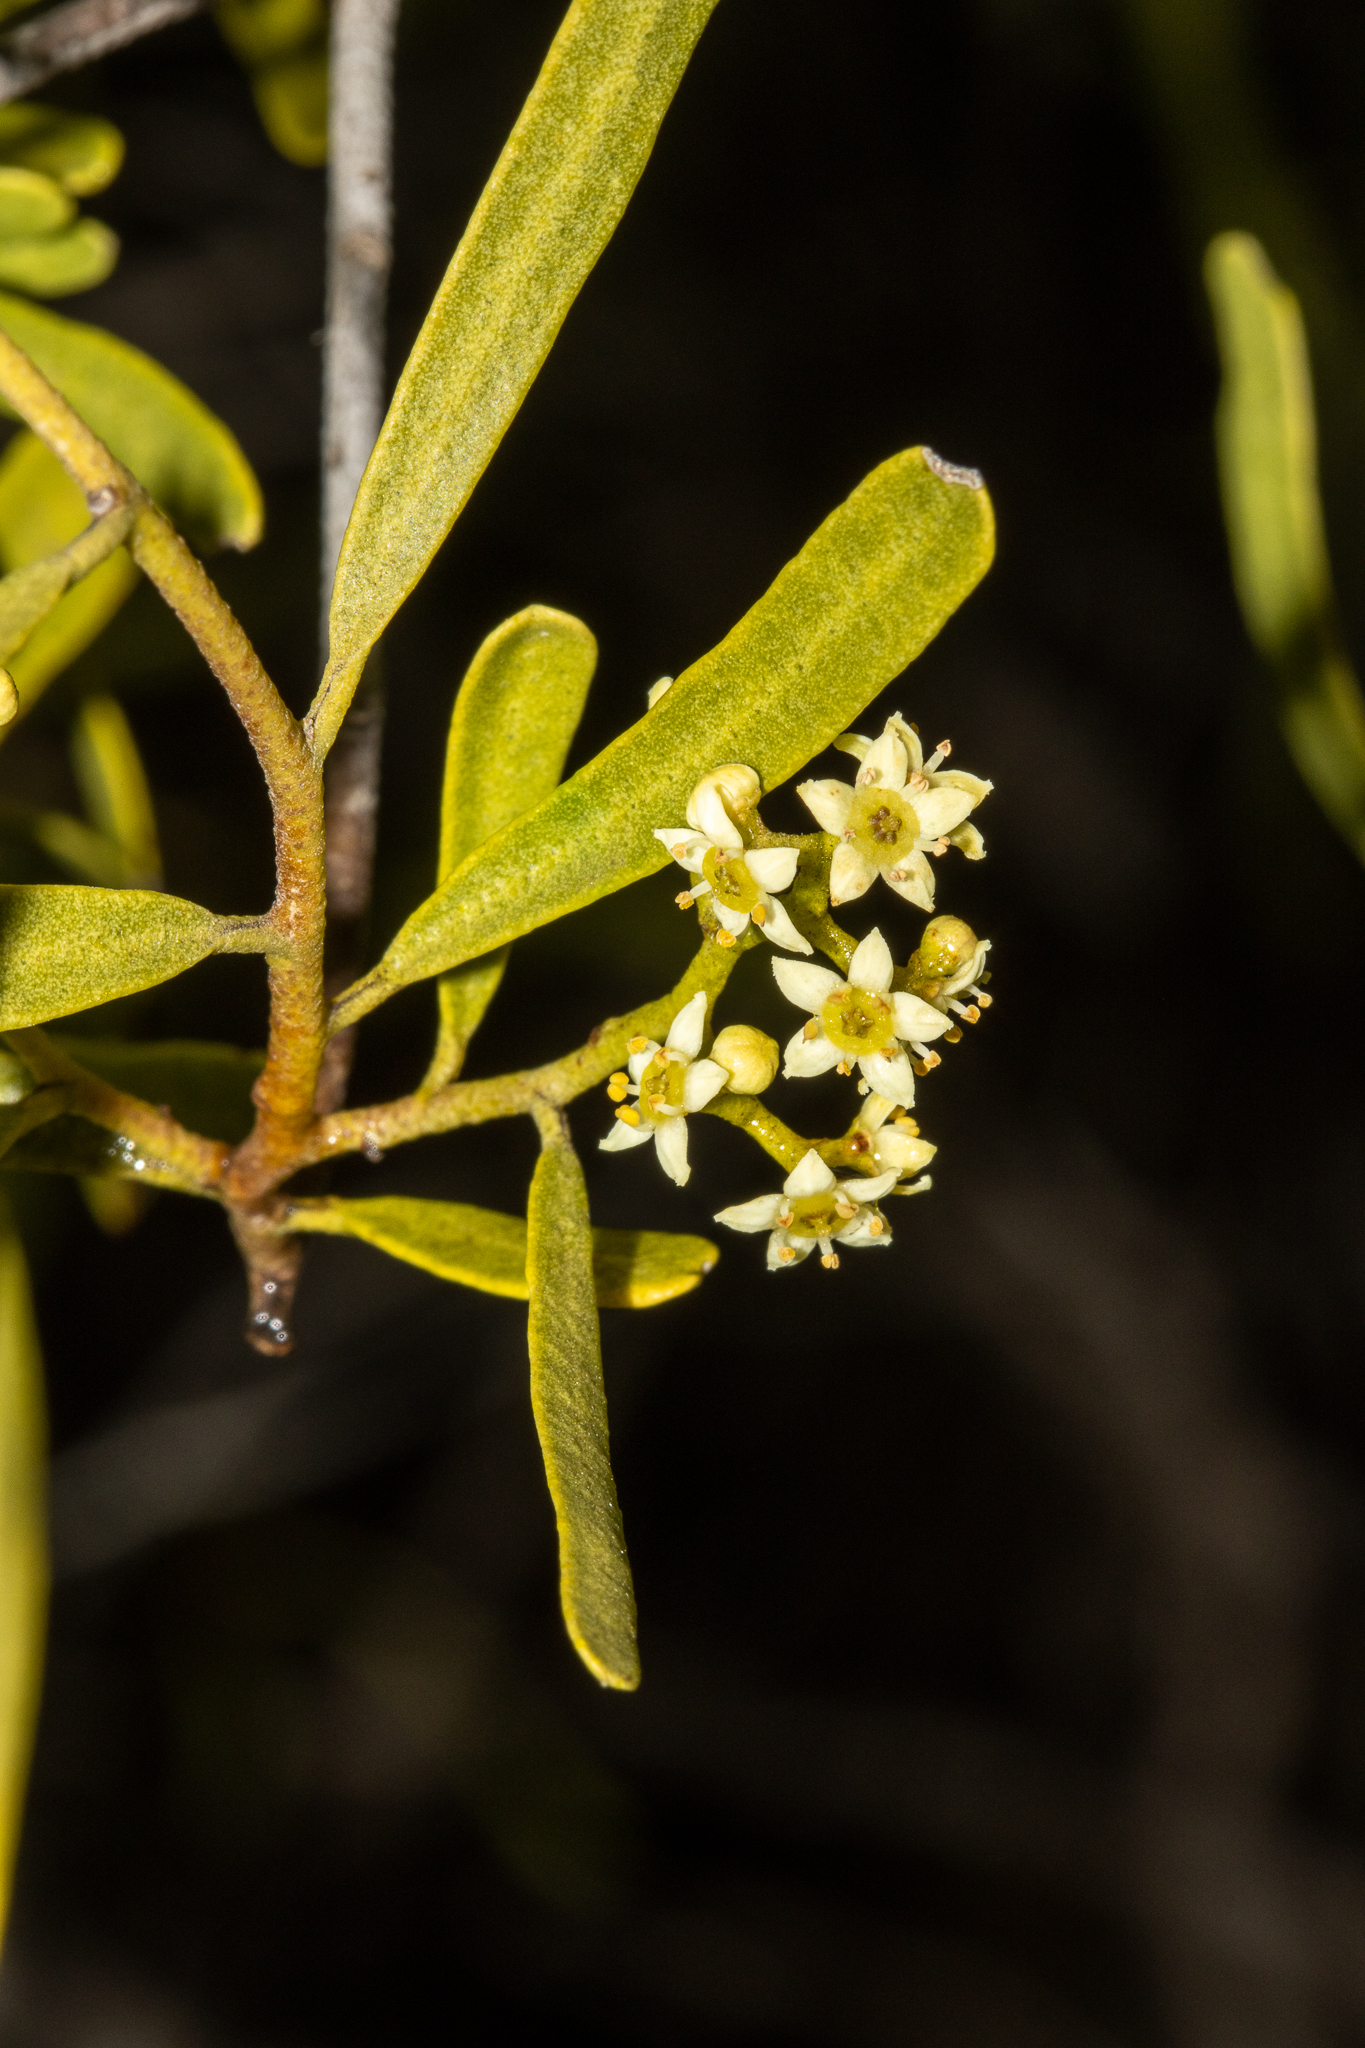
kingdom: Plantae
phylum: Tracheophyta
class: Magnoliopsida
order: Sapindales
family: Rutaceae
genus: Geijera
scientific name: Geijera linearifolia
